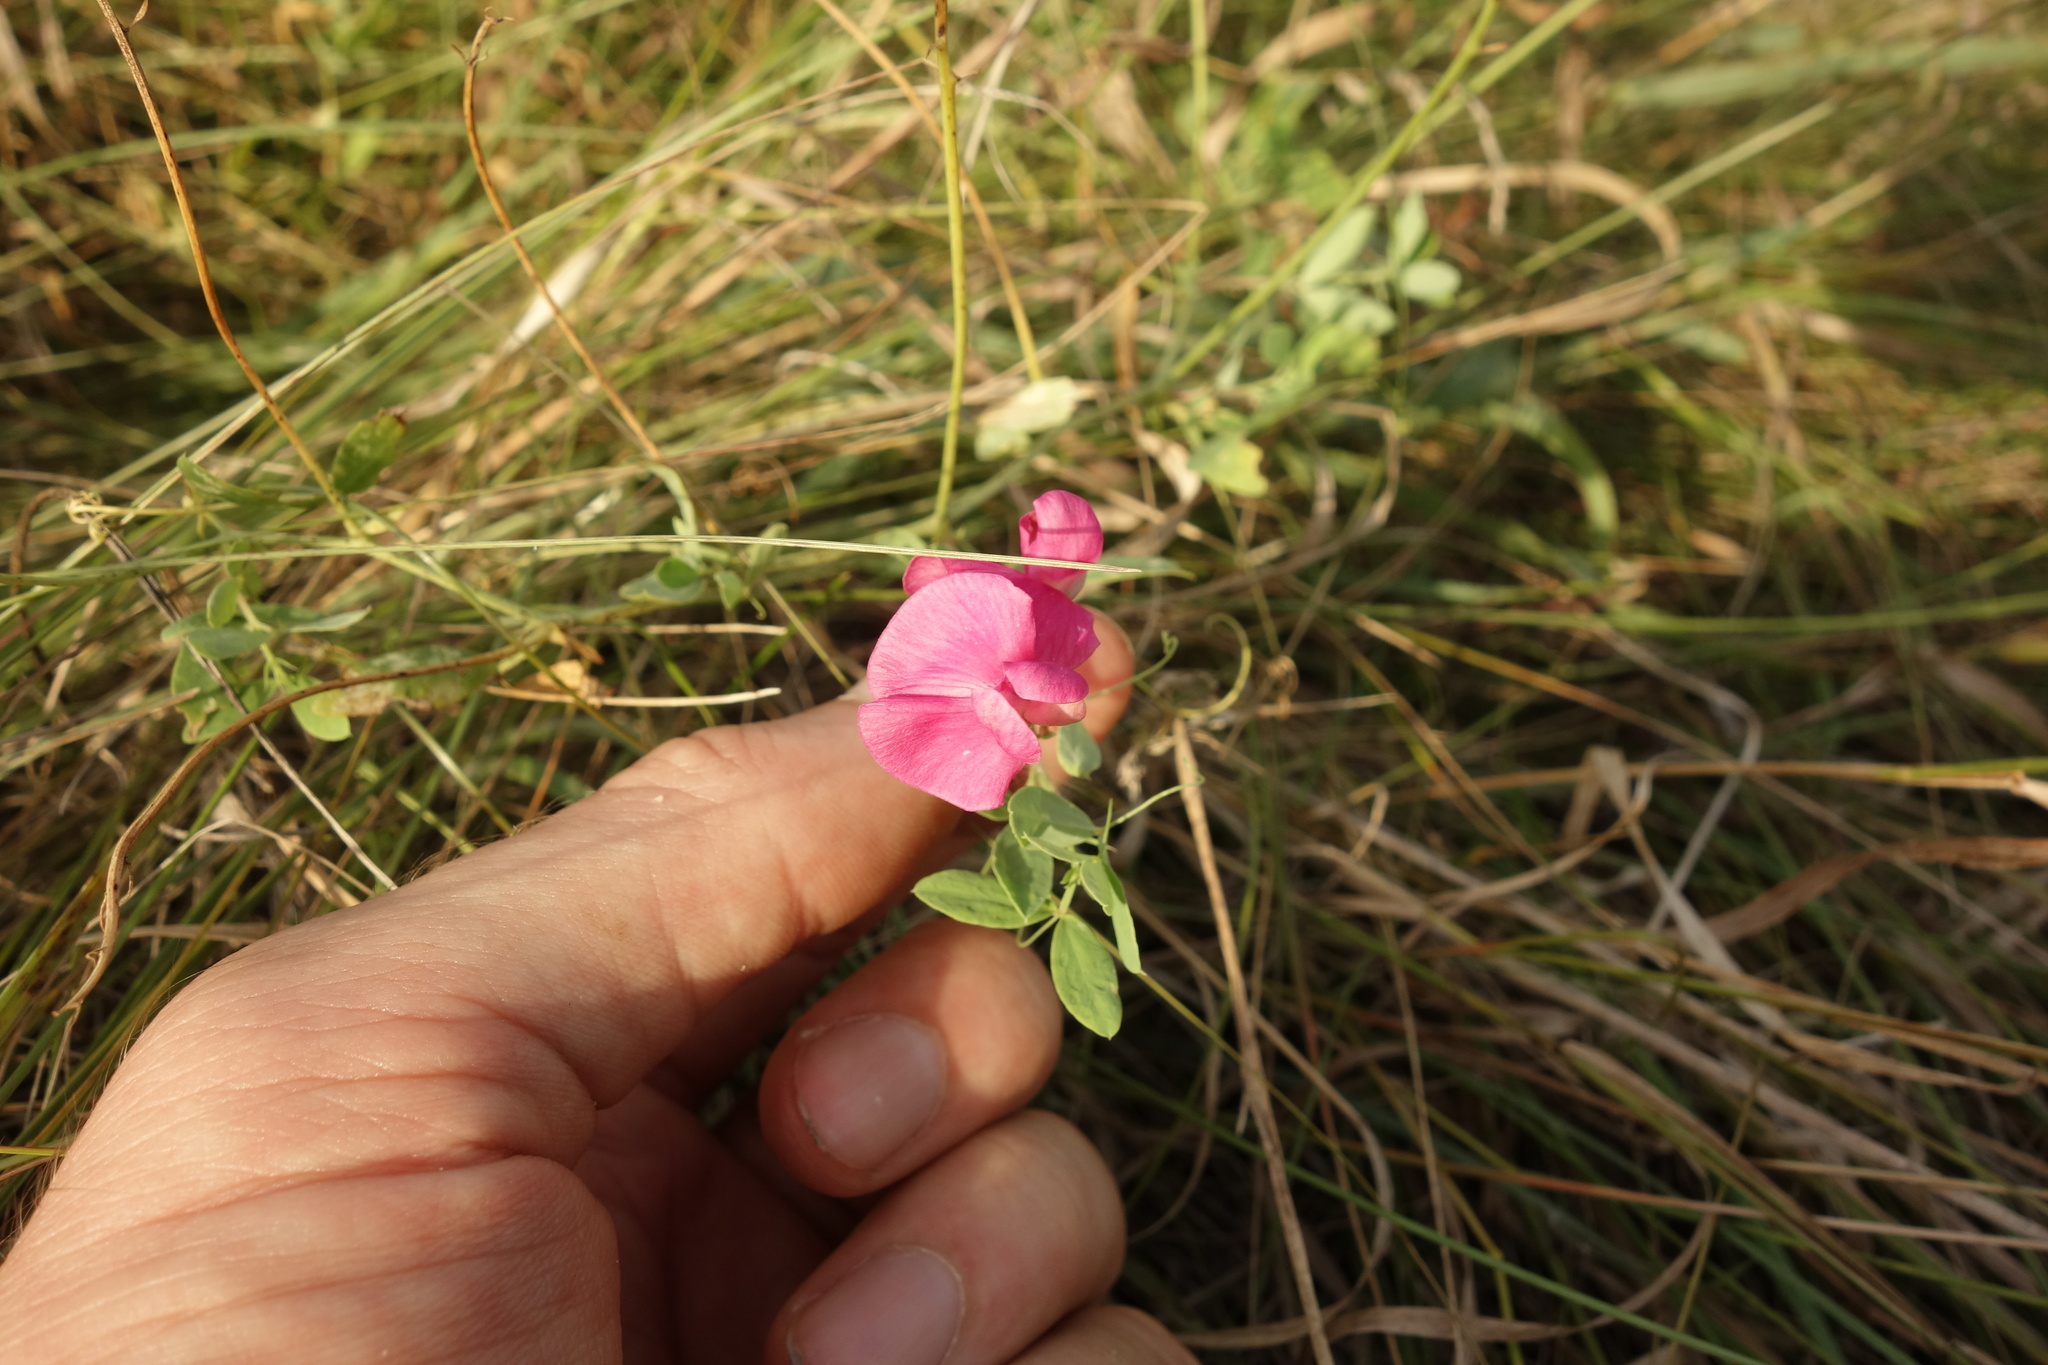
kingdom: Plantae
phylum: Tracheophyta
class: Magnoliopsida
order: Fabales
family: Fabaceae
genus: Lathyrus
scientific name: Lathyrus tuberosus
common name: Tuberous pea
